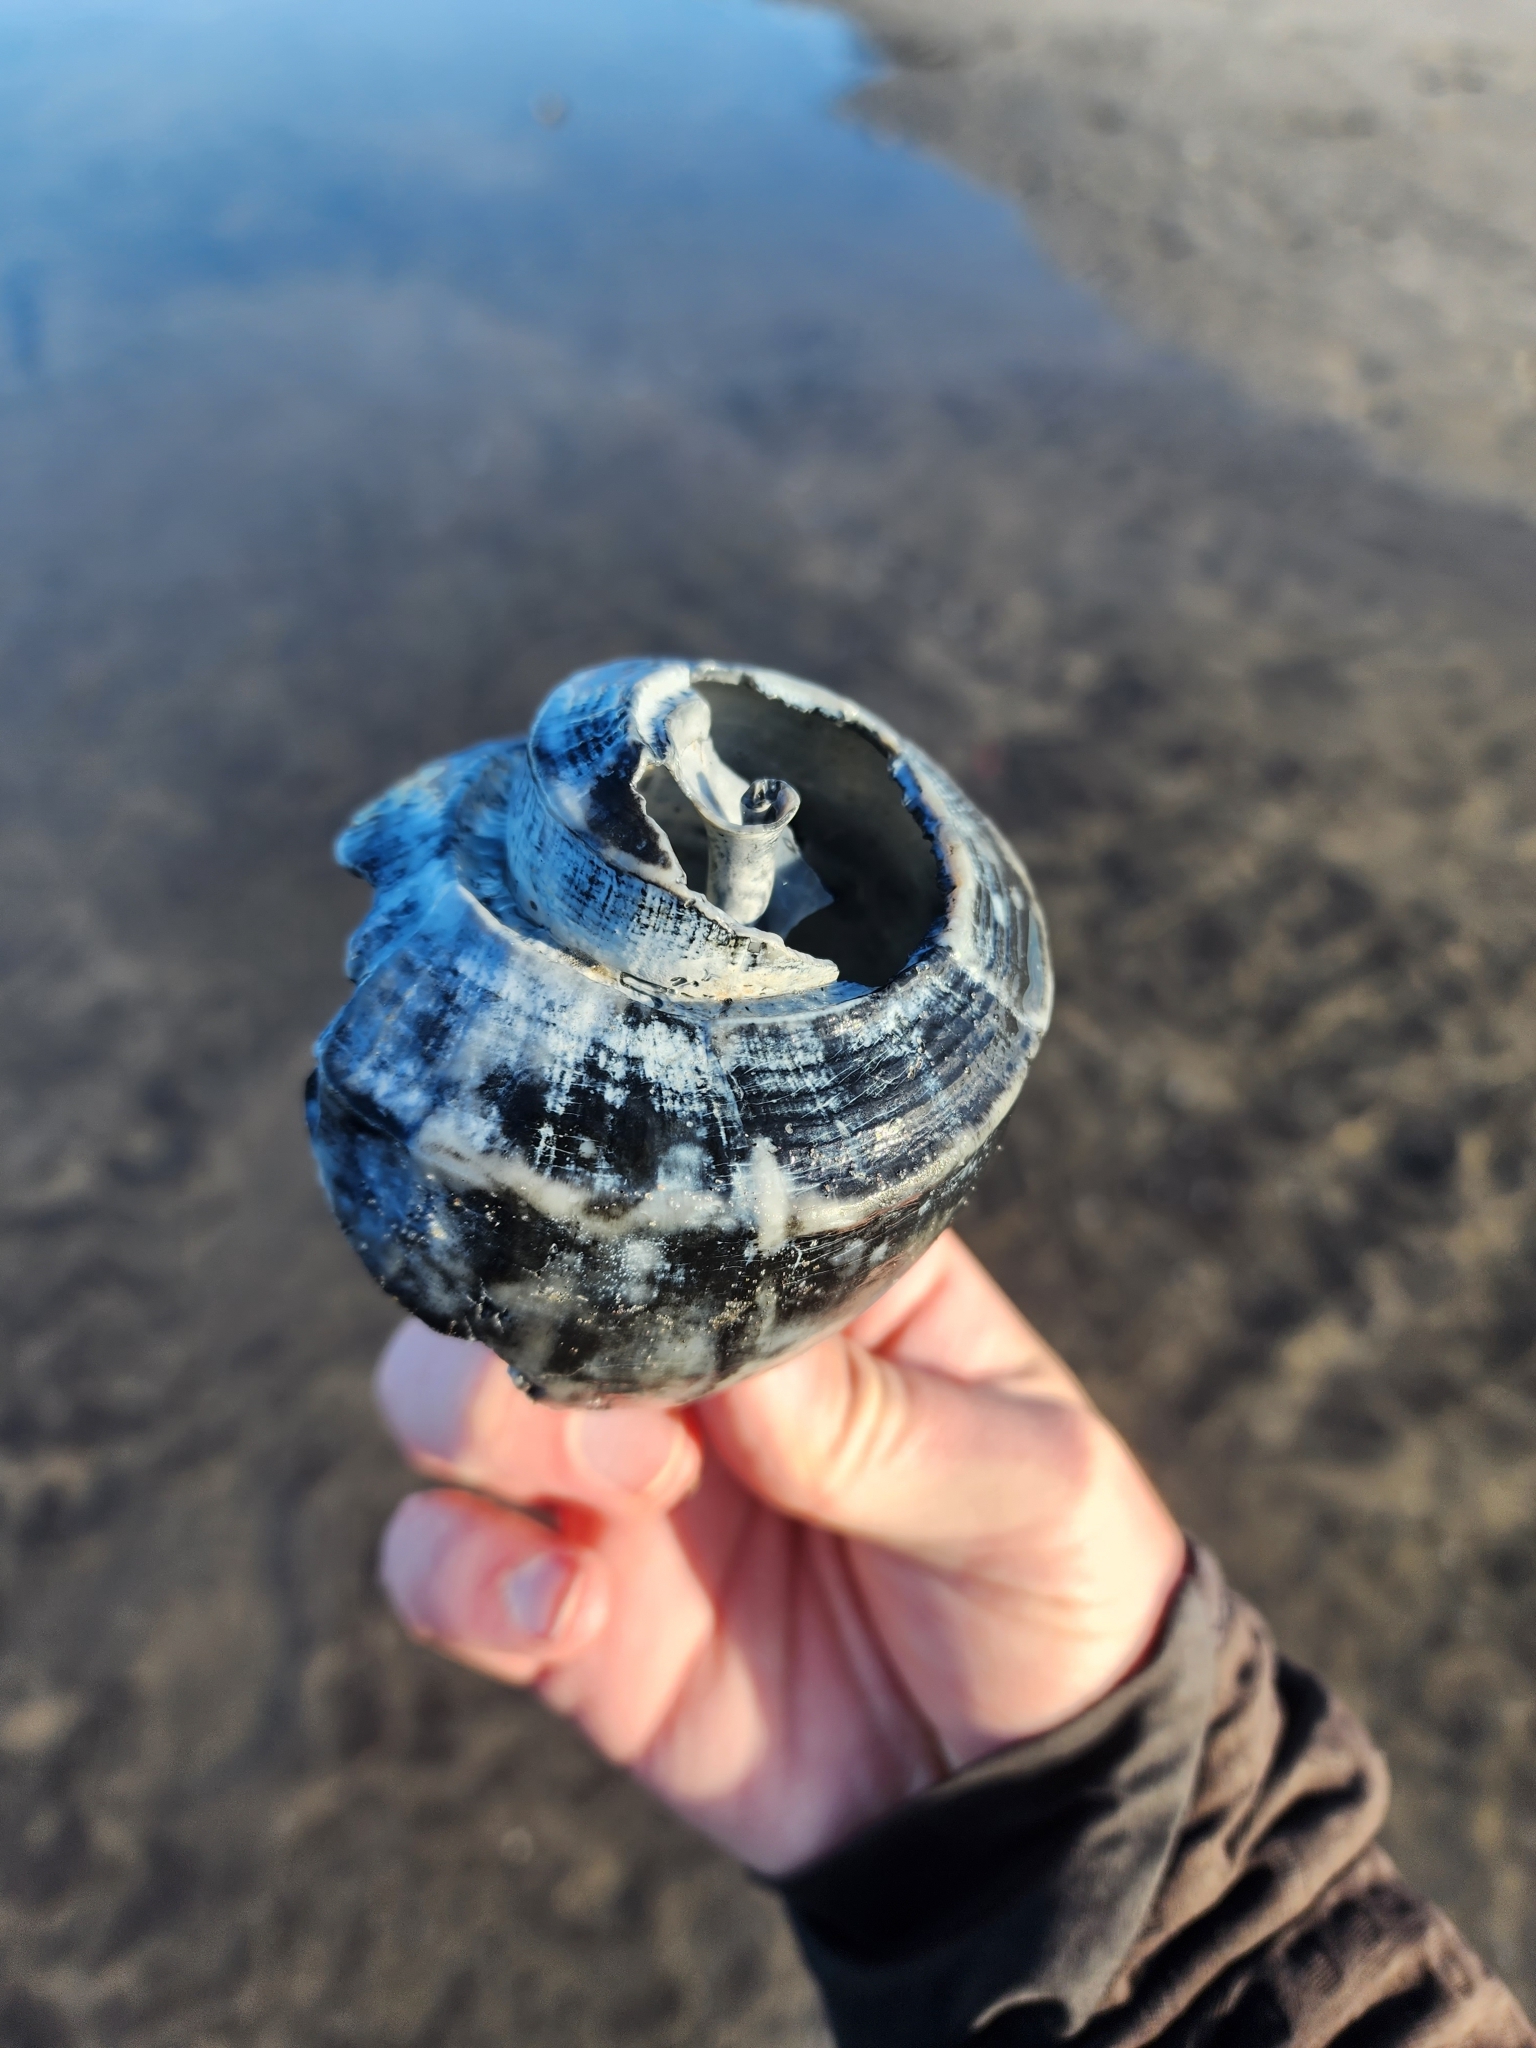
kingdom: Animalia
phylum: Mollusca
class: Gastropoda
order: Neogastropoda
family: Busyconidae
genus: Busycotypus
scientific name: Busycotypus canaliculatus
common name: Channeled whelk
